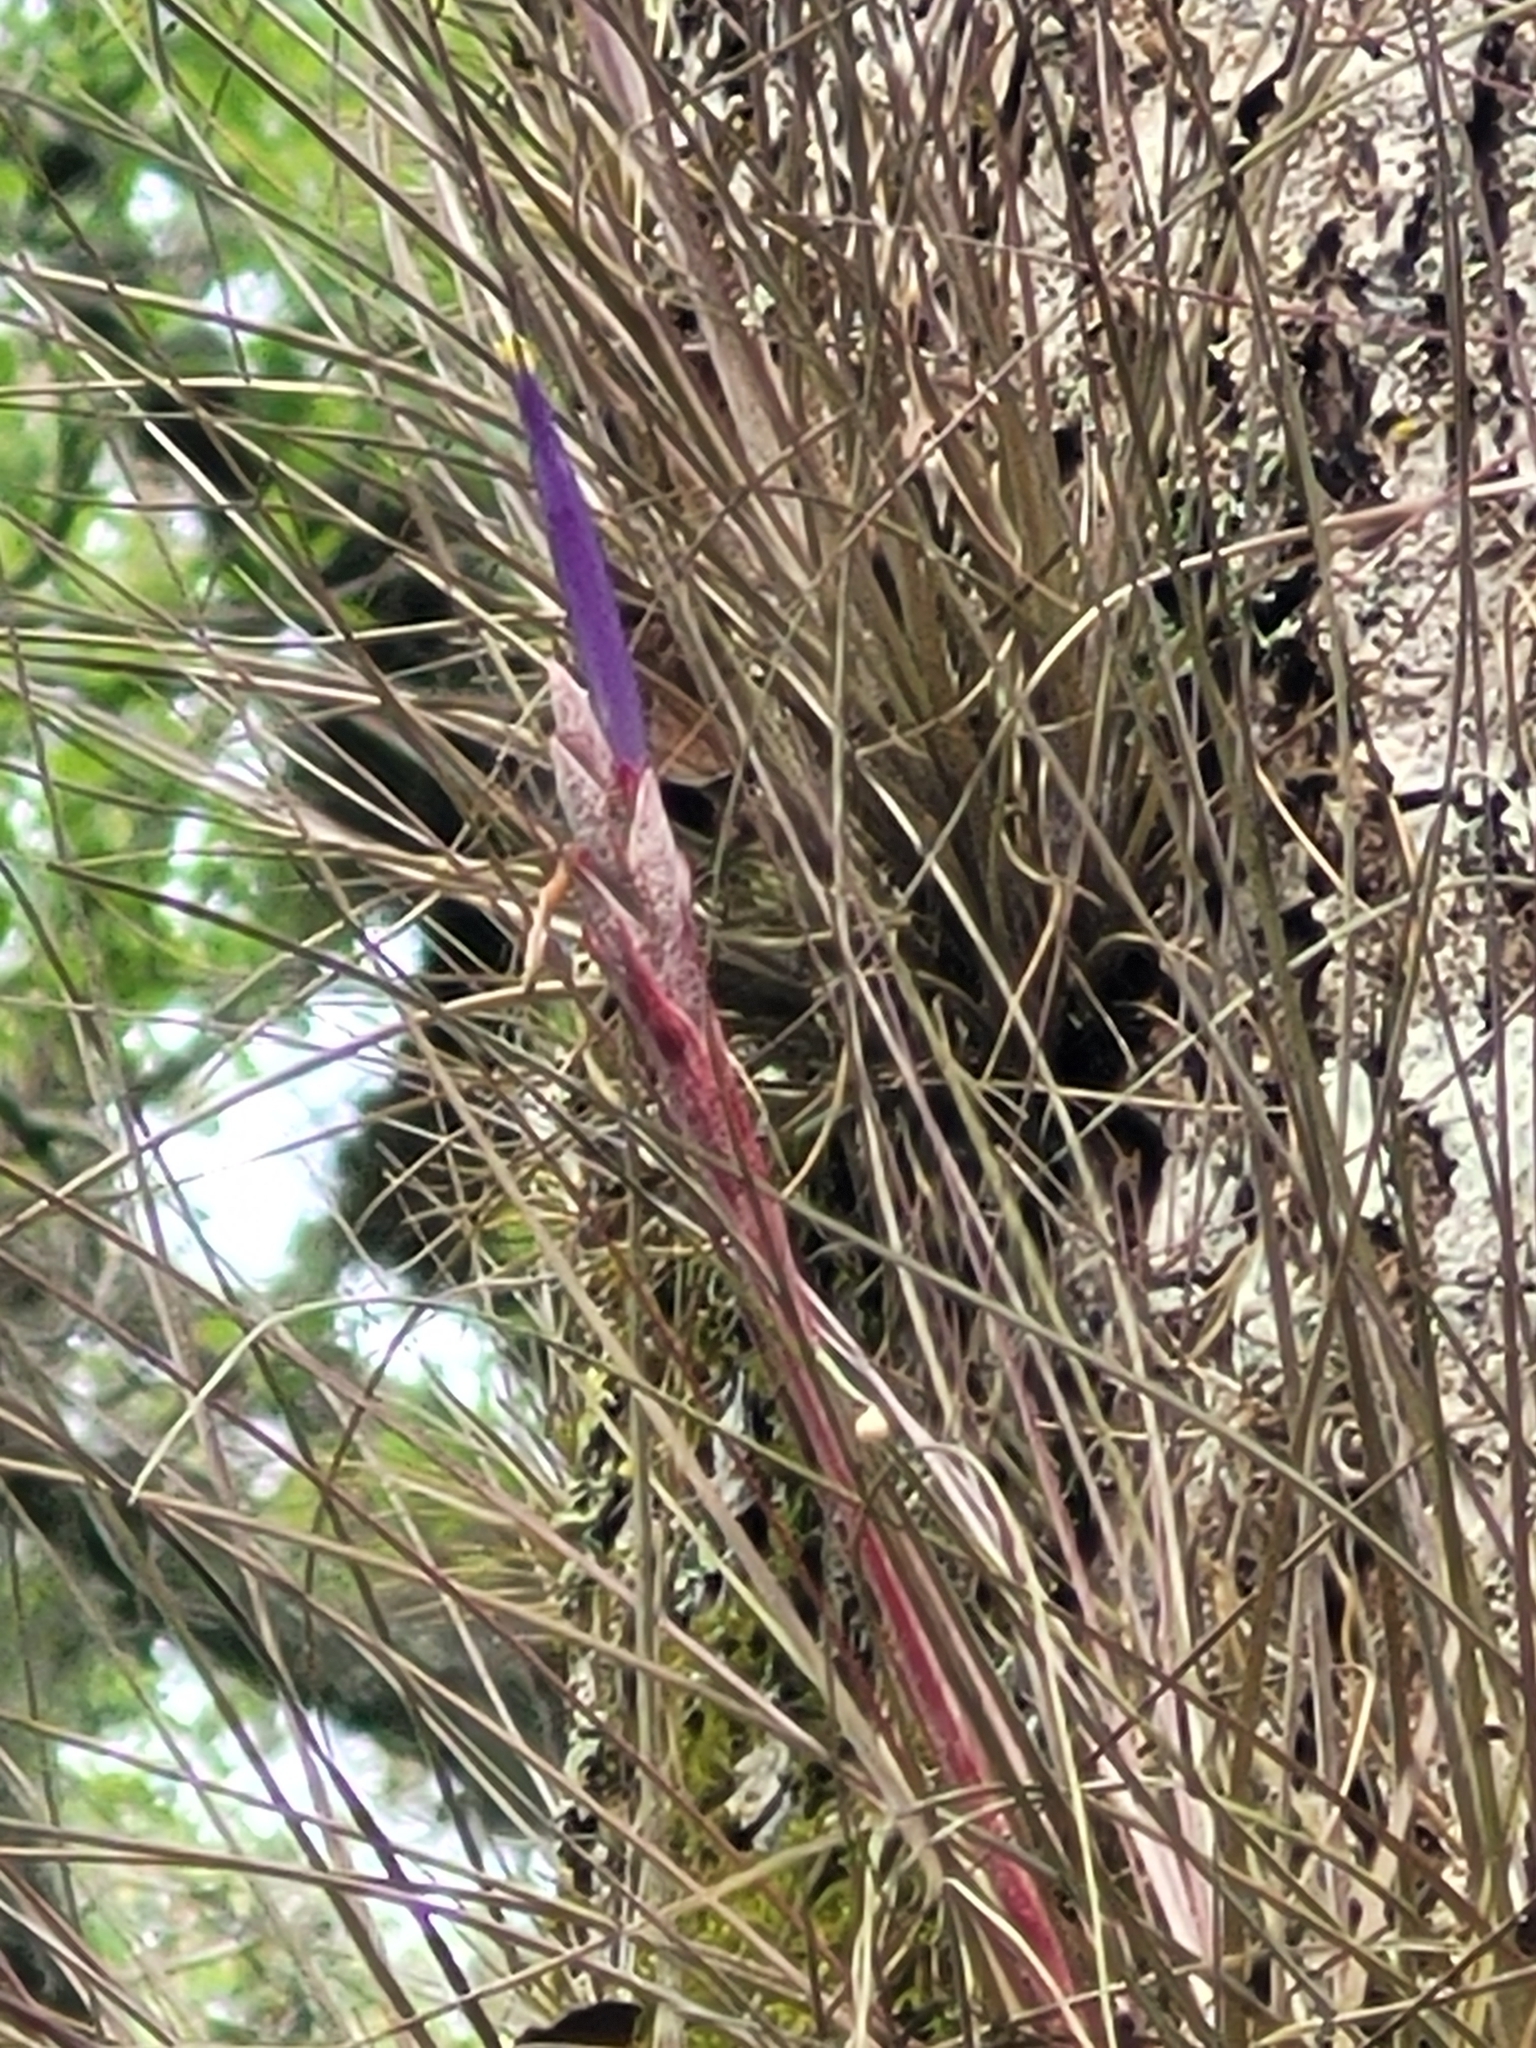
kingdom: Plantae
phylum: Tracheophyta
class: Liliopsida
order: Poales
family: Bromeliaceae
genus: Tillandsia
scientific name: Tillandsia bartramii
